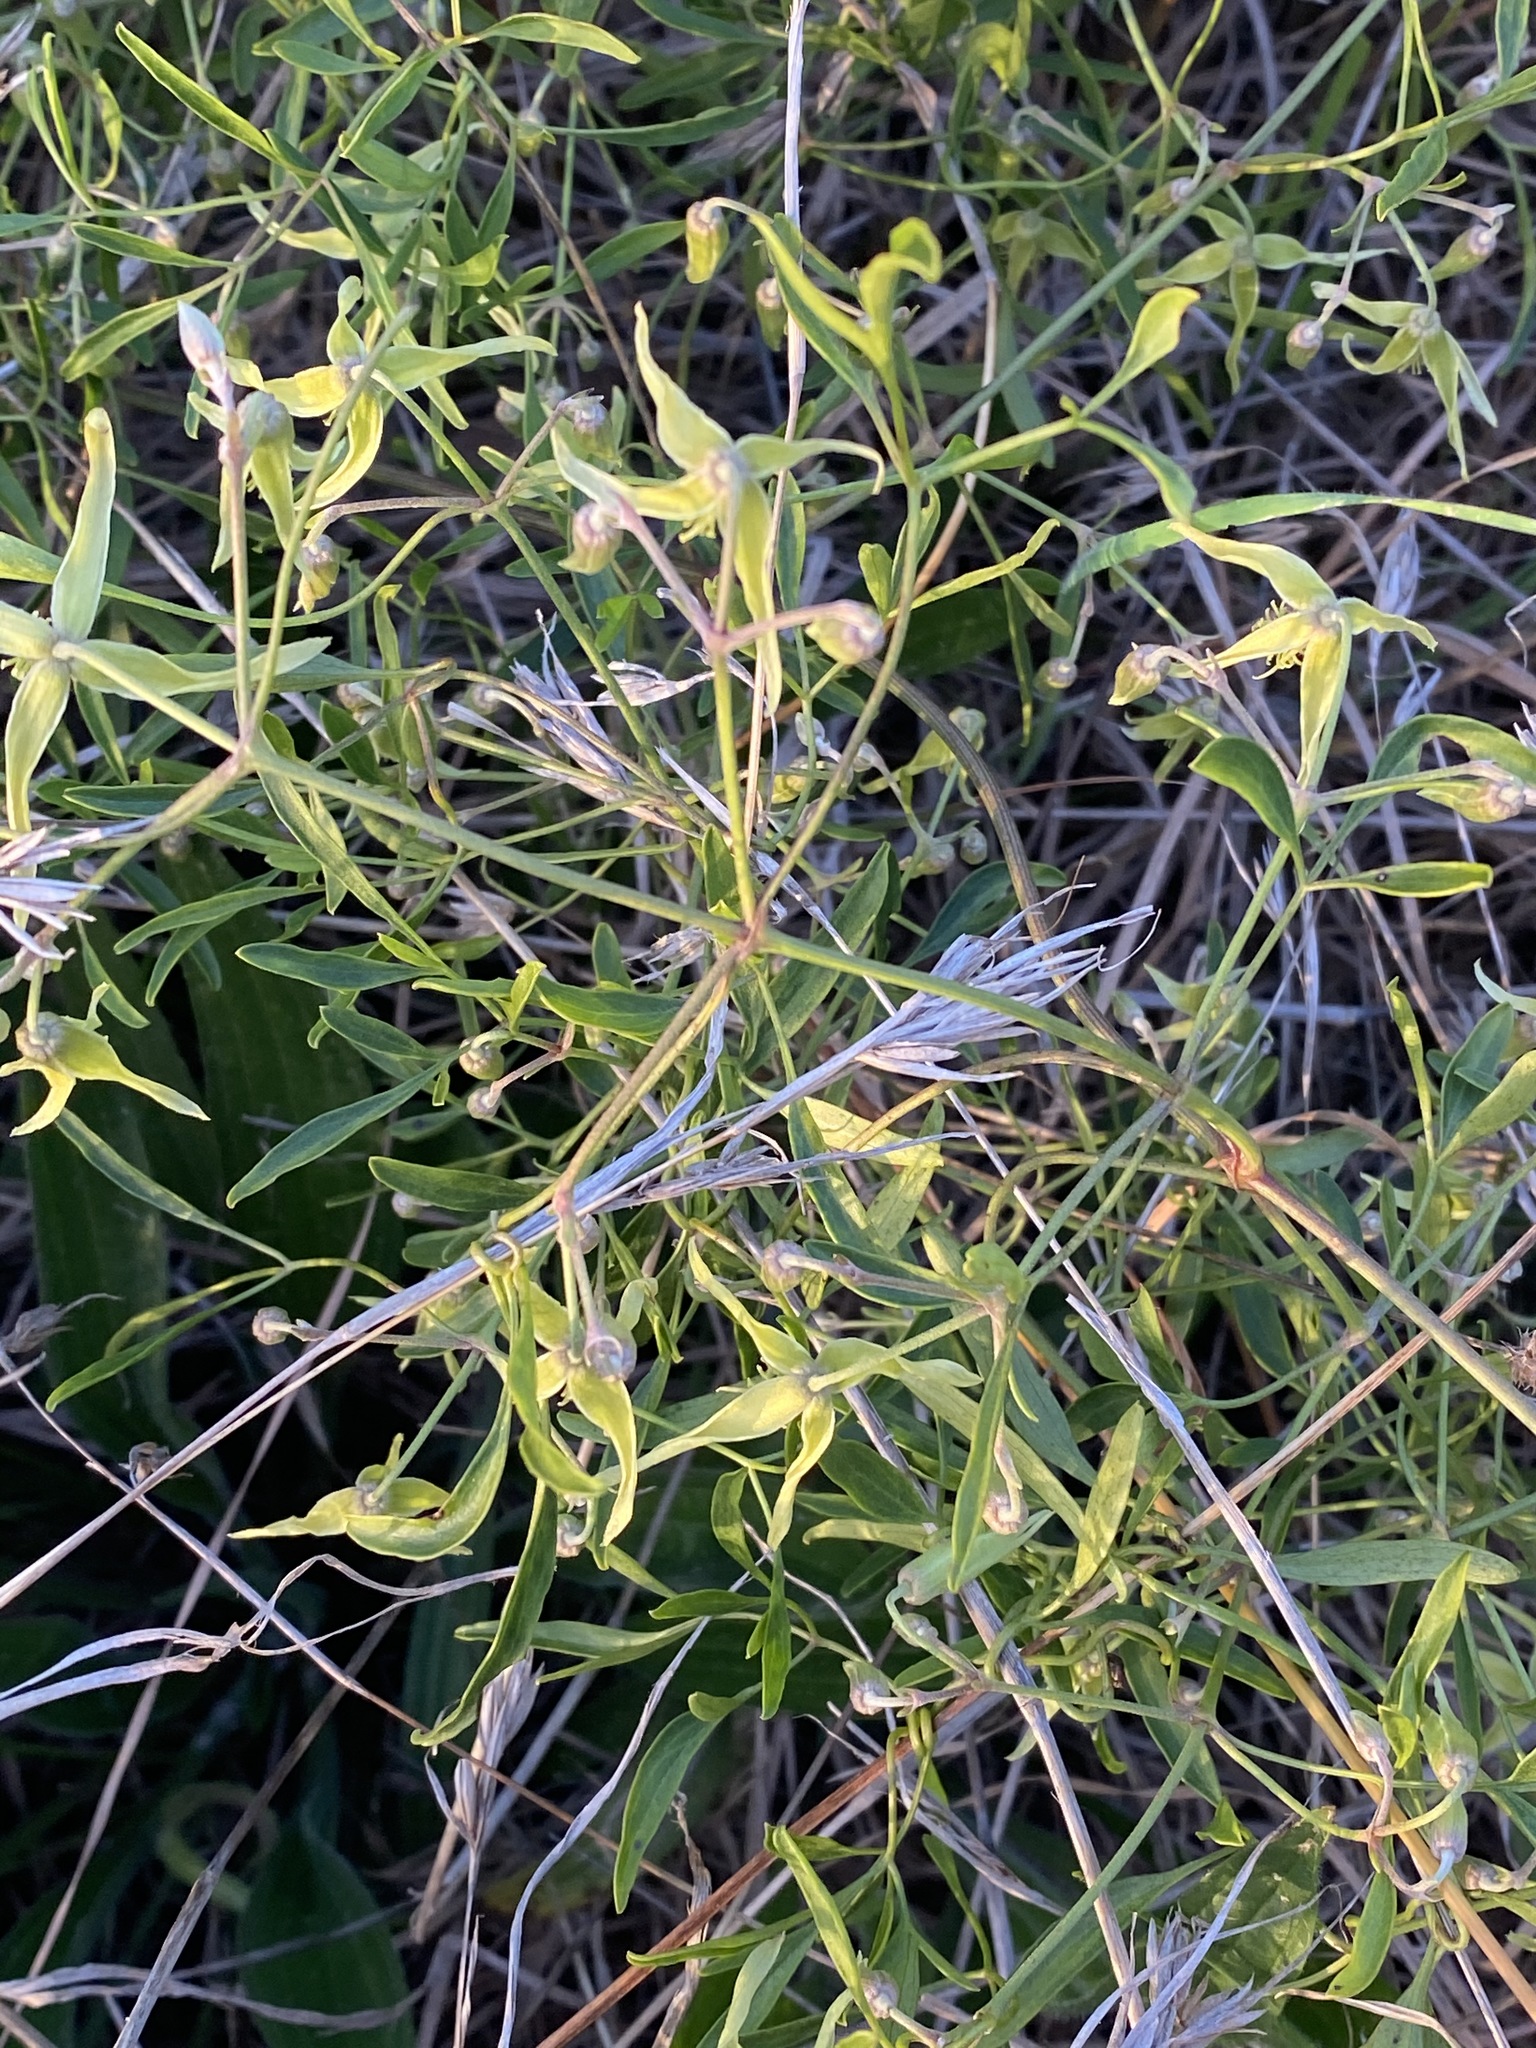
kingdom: Plantae
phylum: Tracheophyta
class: Magnoliopsida
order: Ranunculales
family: Ranunculaceae
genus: Clematis
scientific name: Clematis microphylla
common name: Headachevine
